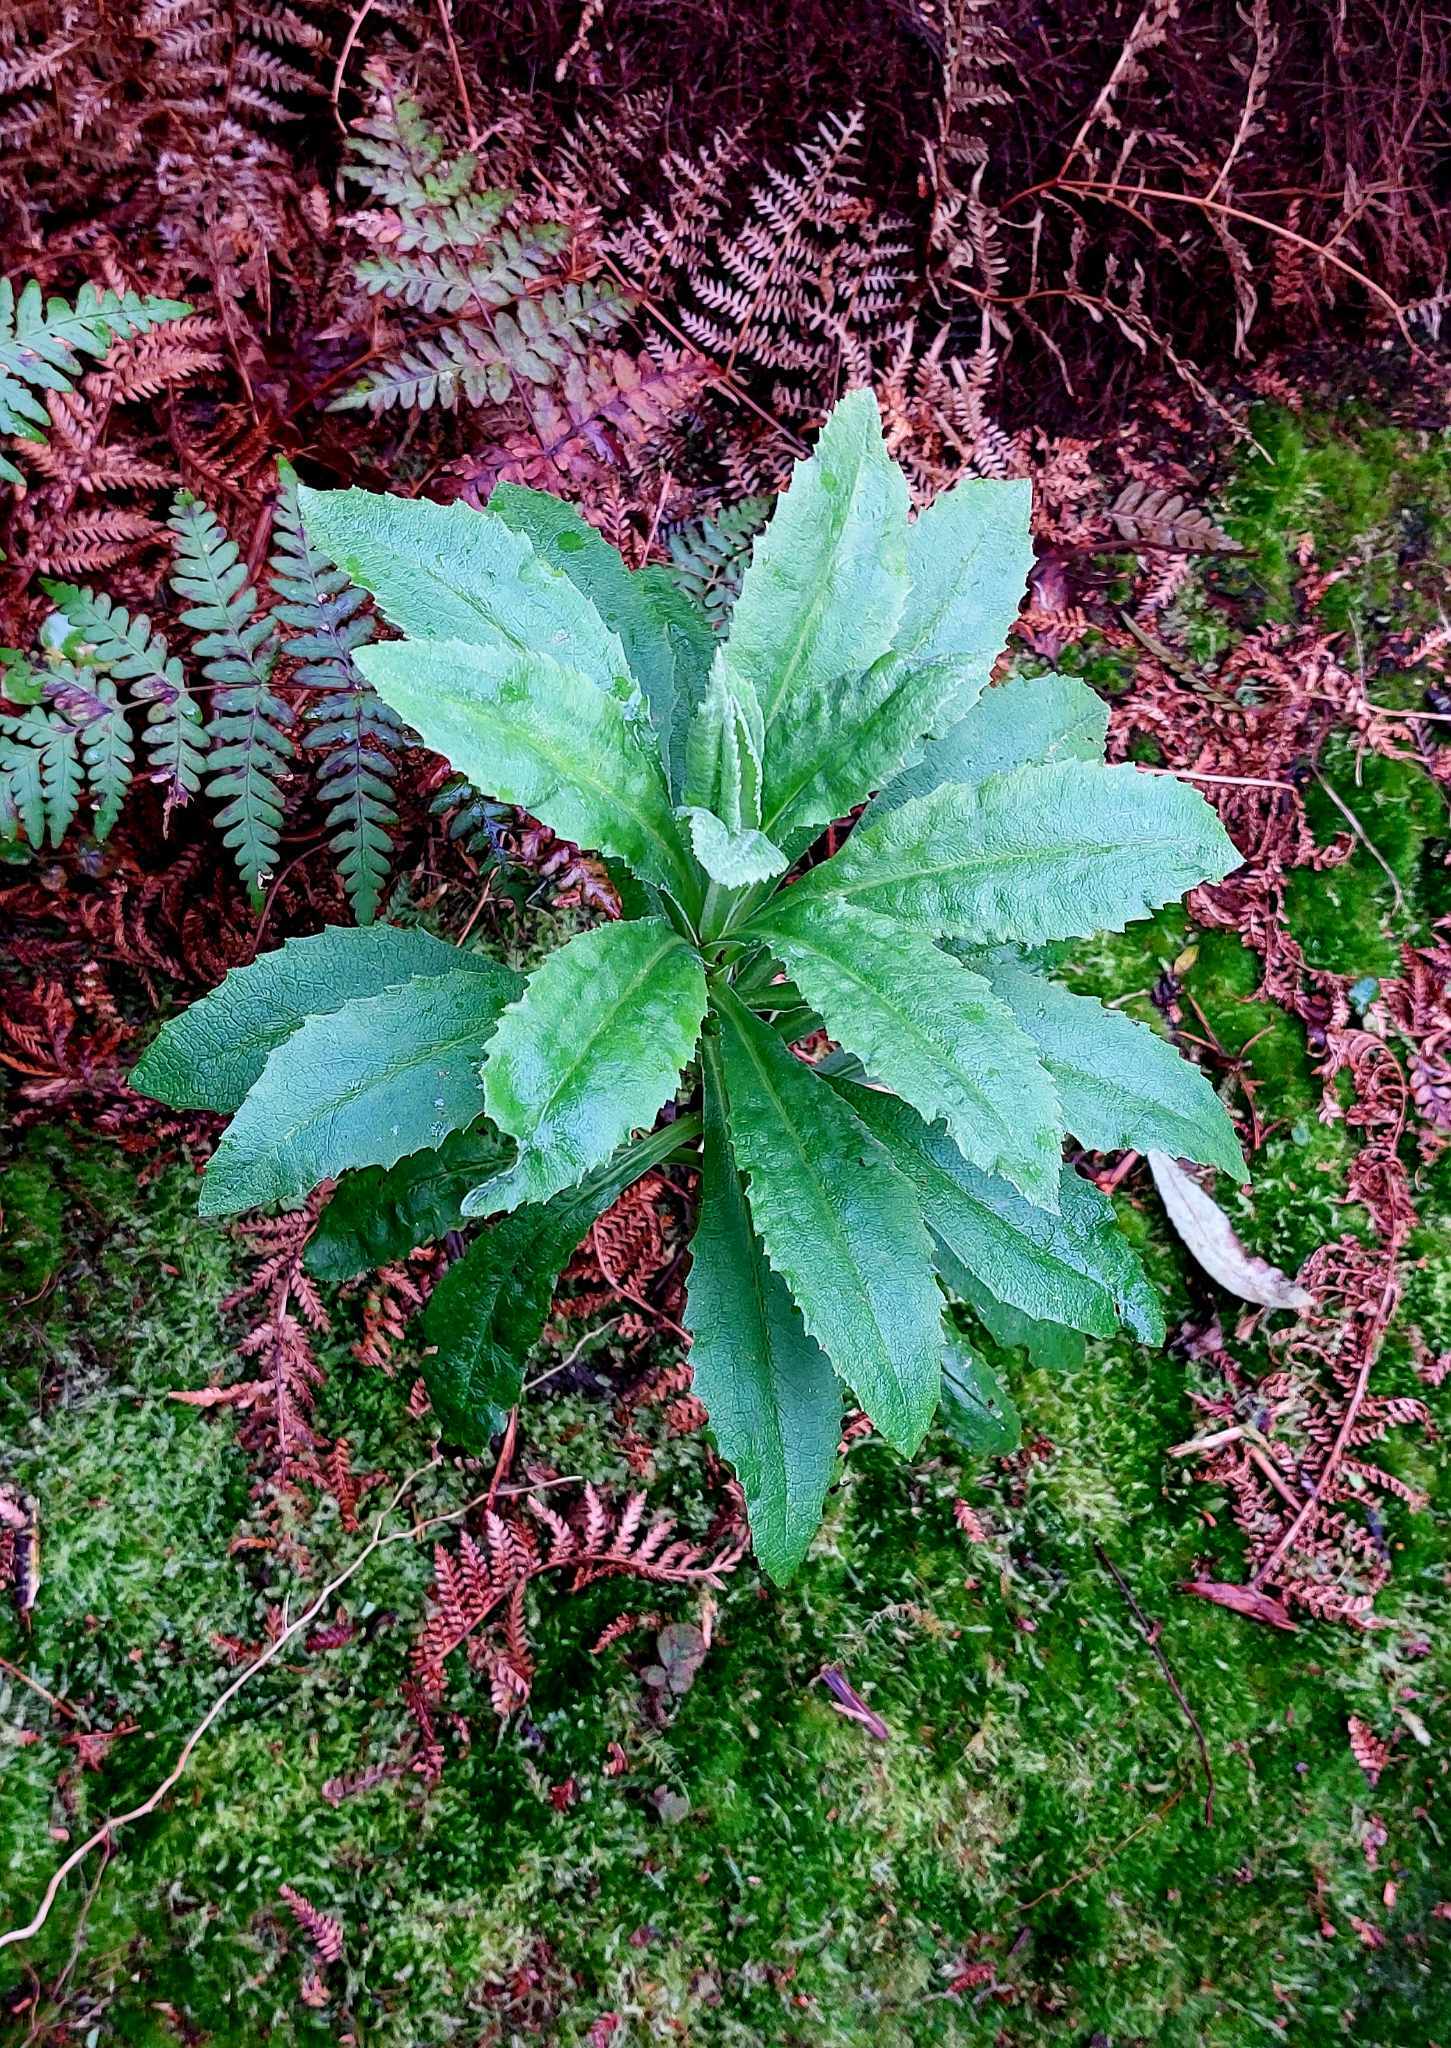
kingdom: Plantae
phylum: Tracheophyta
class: Magnoliopsida
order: Asterales
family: Asteraceae
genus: Brachyglottis
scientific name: Brachyglottis huntii
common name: Chatham island christmas tree
